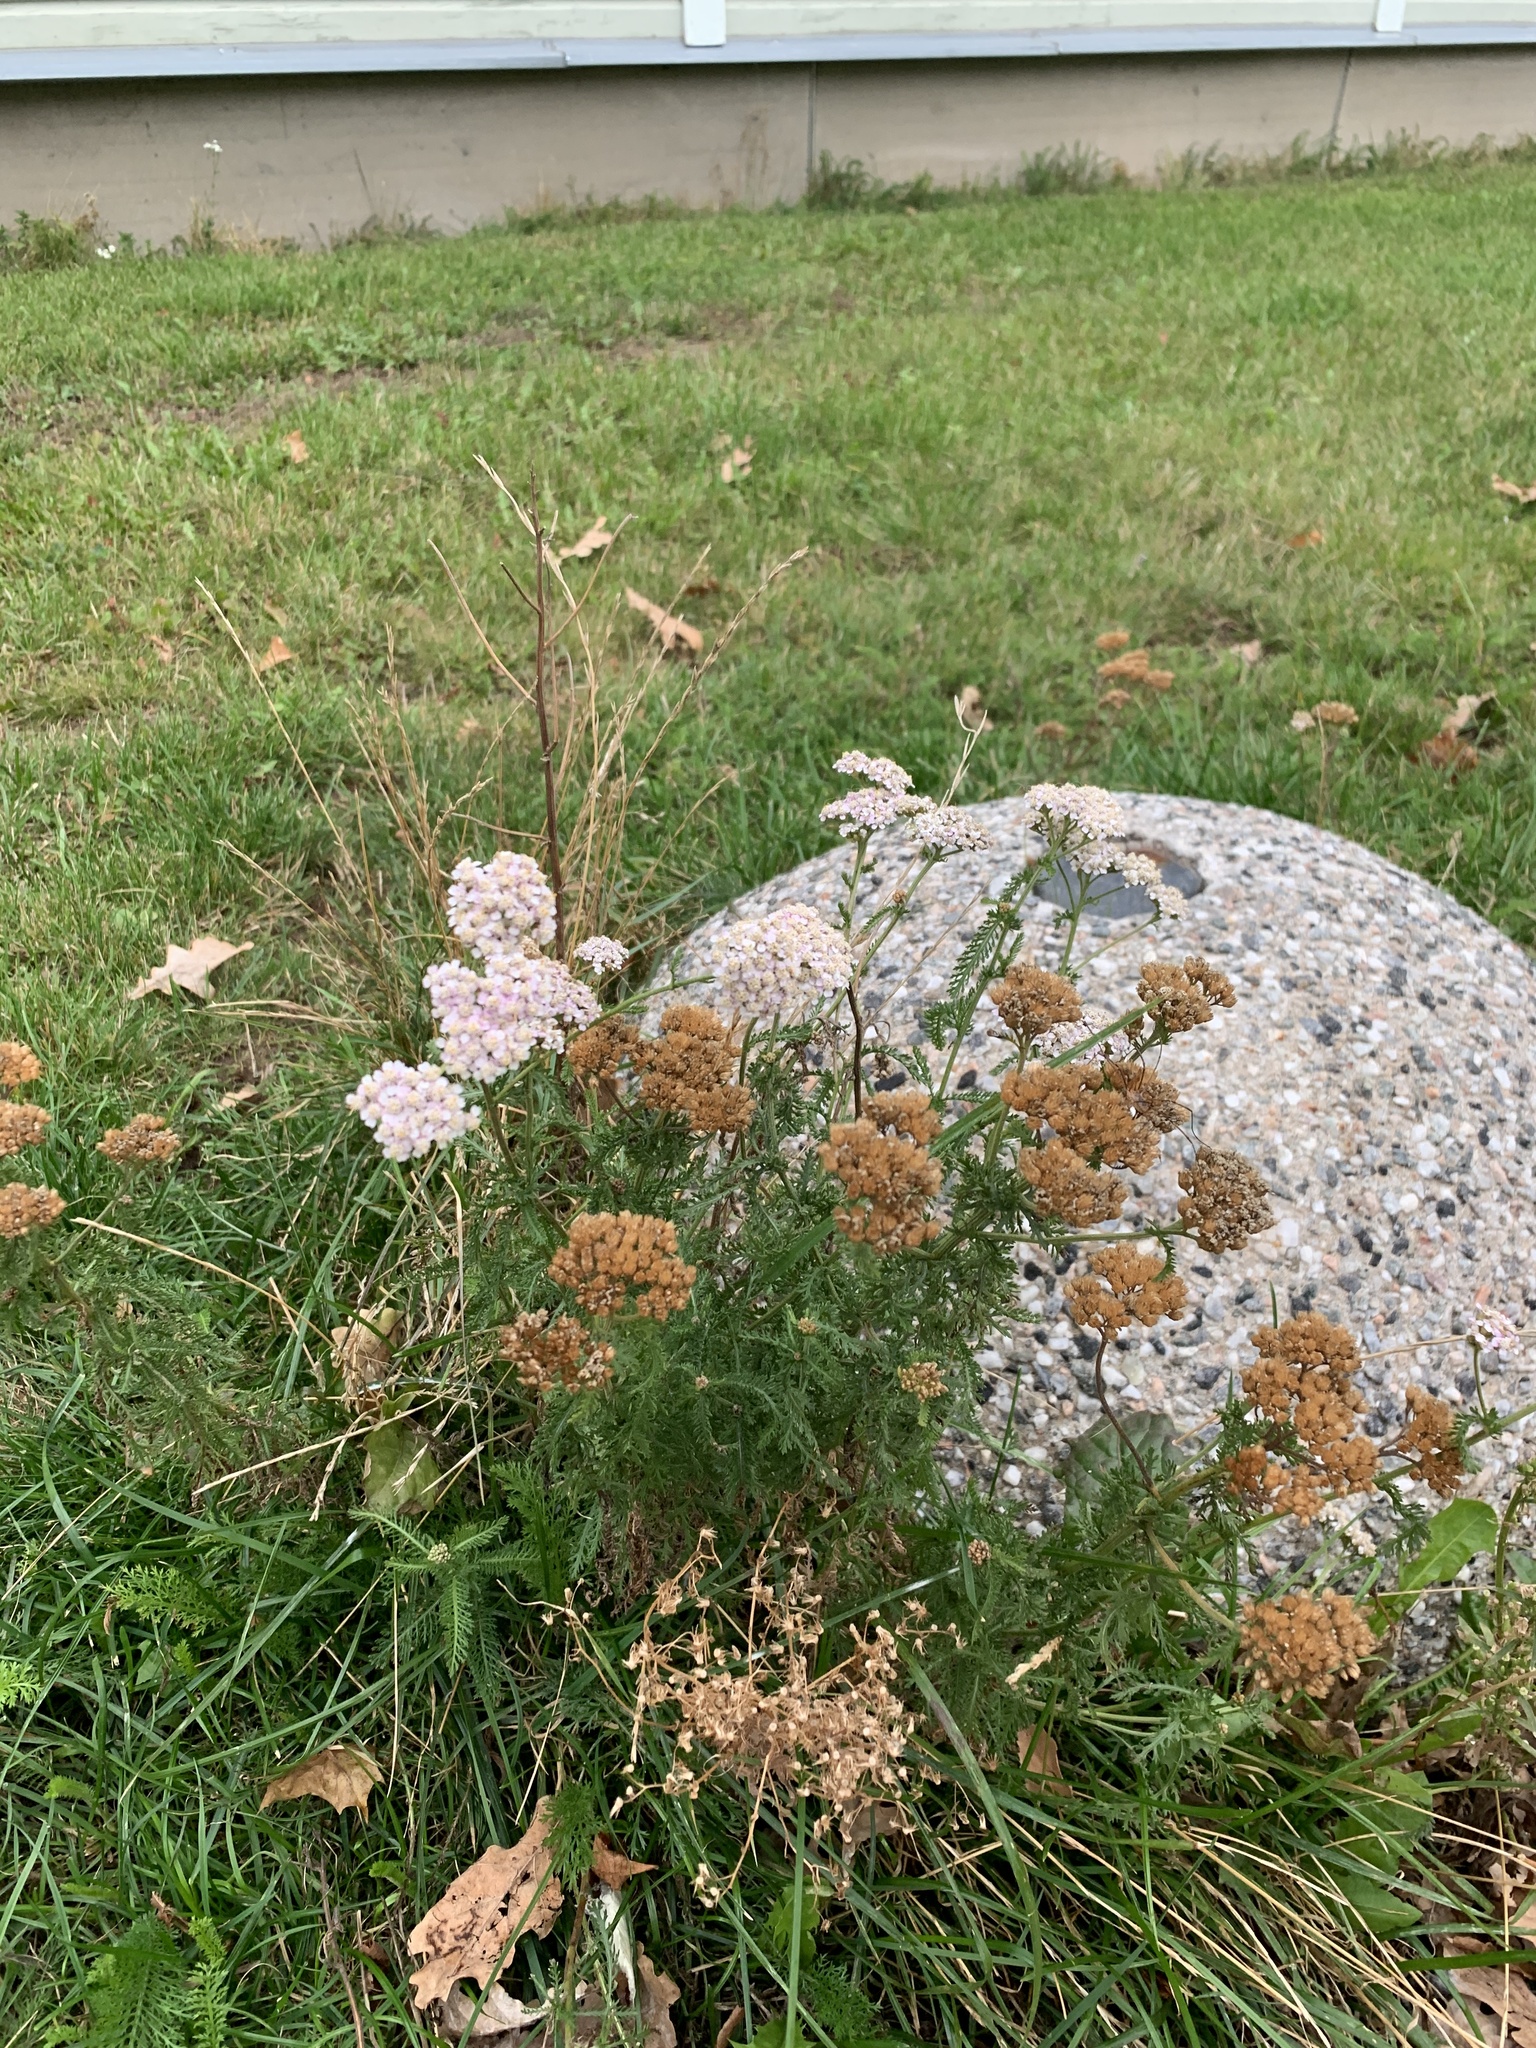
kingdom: Plantae
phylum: Tracheophyta
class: Magnoliopsida
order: Asterales
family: Asteraceae
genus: Achillea
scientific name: Achillea millefolium
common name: Yarrow
